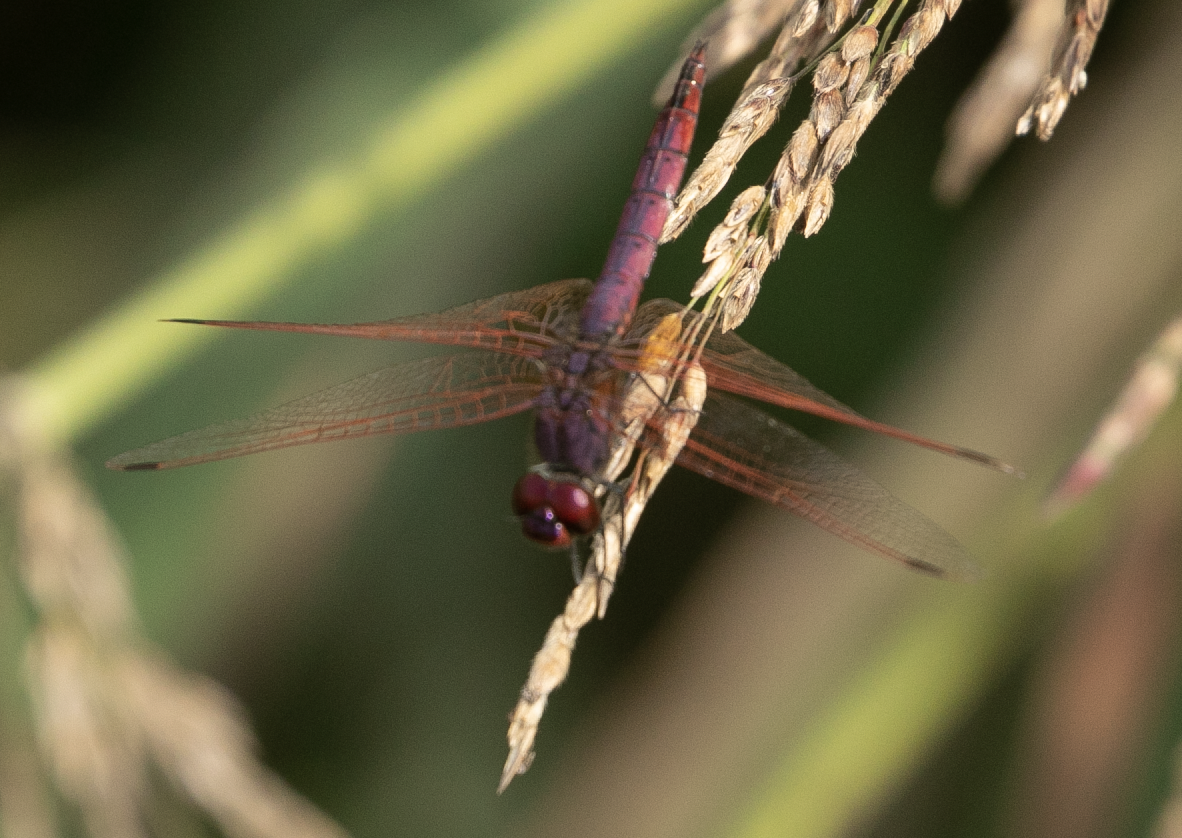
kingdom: Animalia
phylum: Arthropoda
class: Insecta
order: Odonata
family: Libellulidae
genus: Trithemis
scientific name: Trithemis annulata
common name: Violet dropwing
